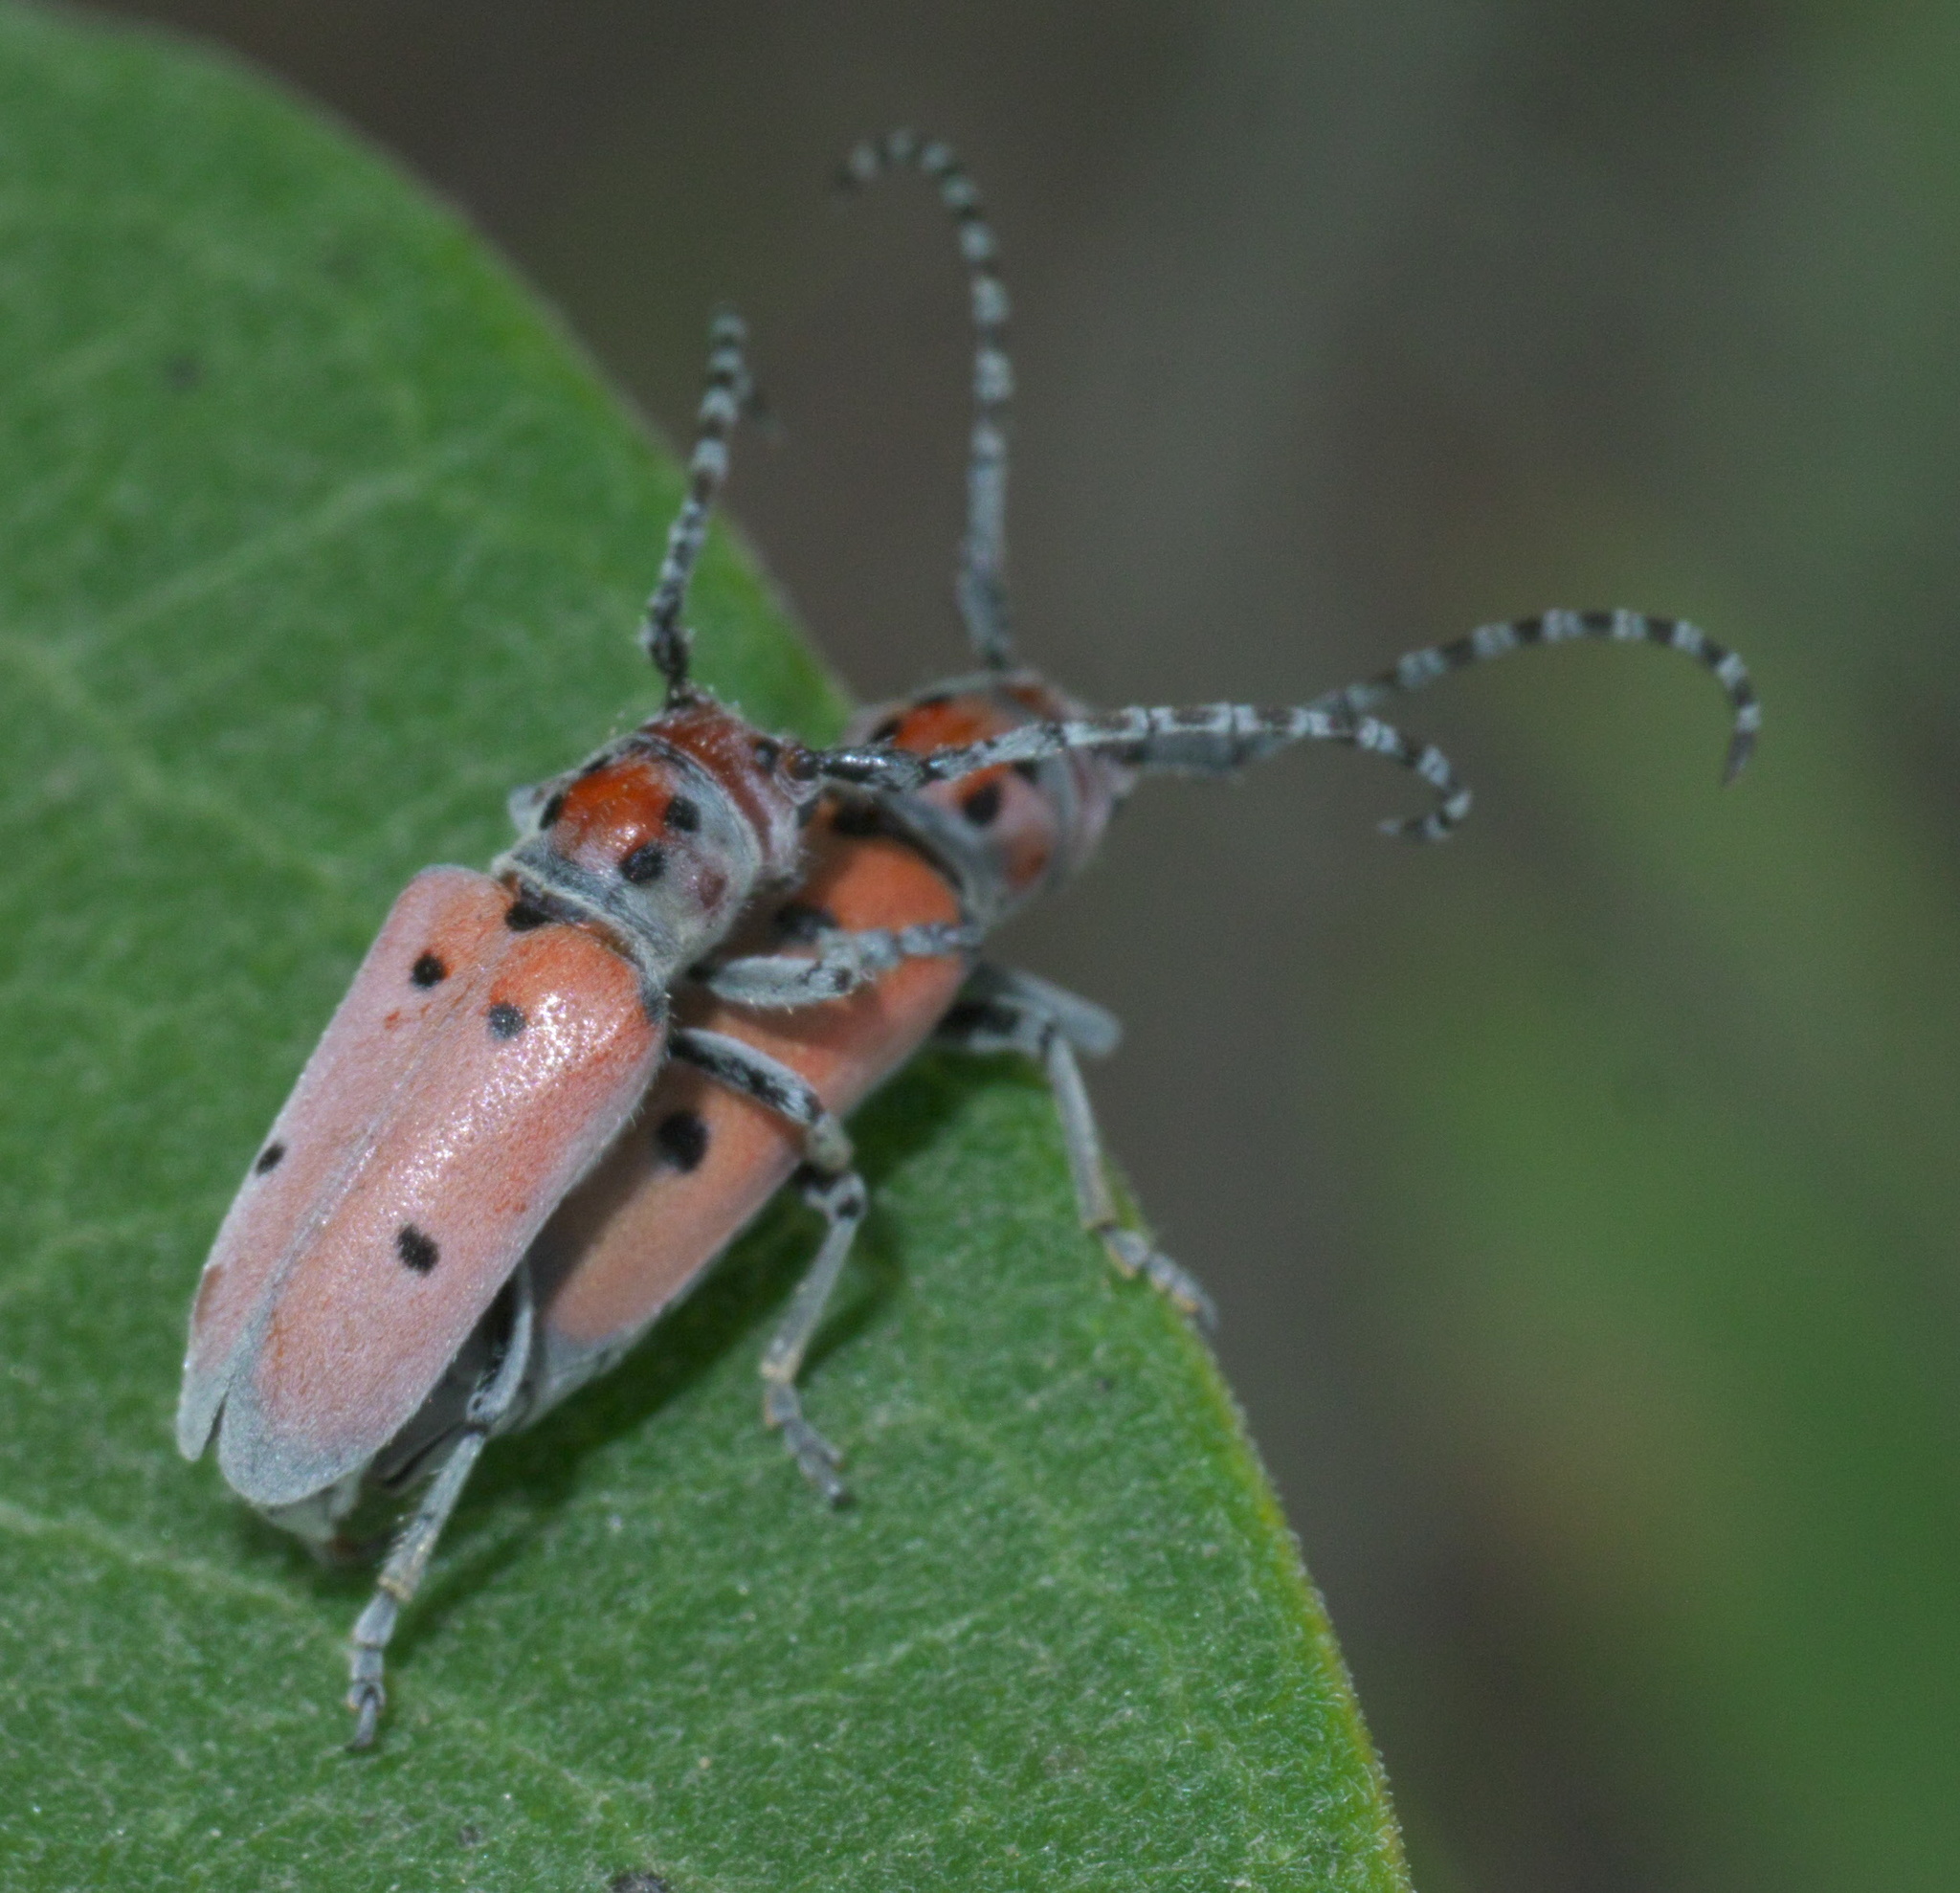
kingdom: Animalia
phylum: Arthropoda
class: Insecta
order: Coleoptera
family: Cerambycidae
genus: Tetraopes
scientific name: Tetraopes annulatus
